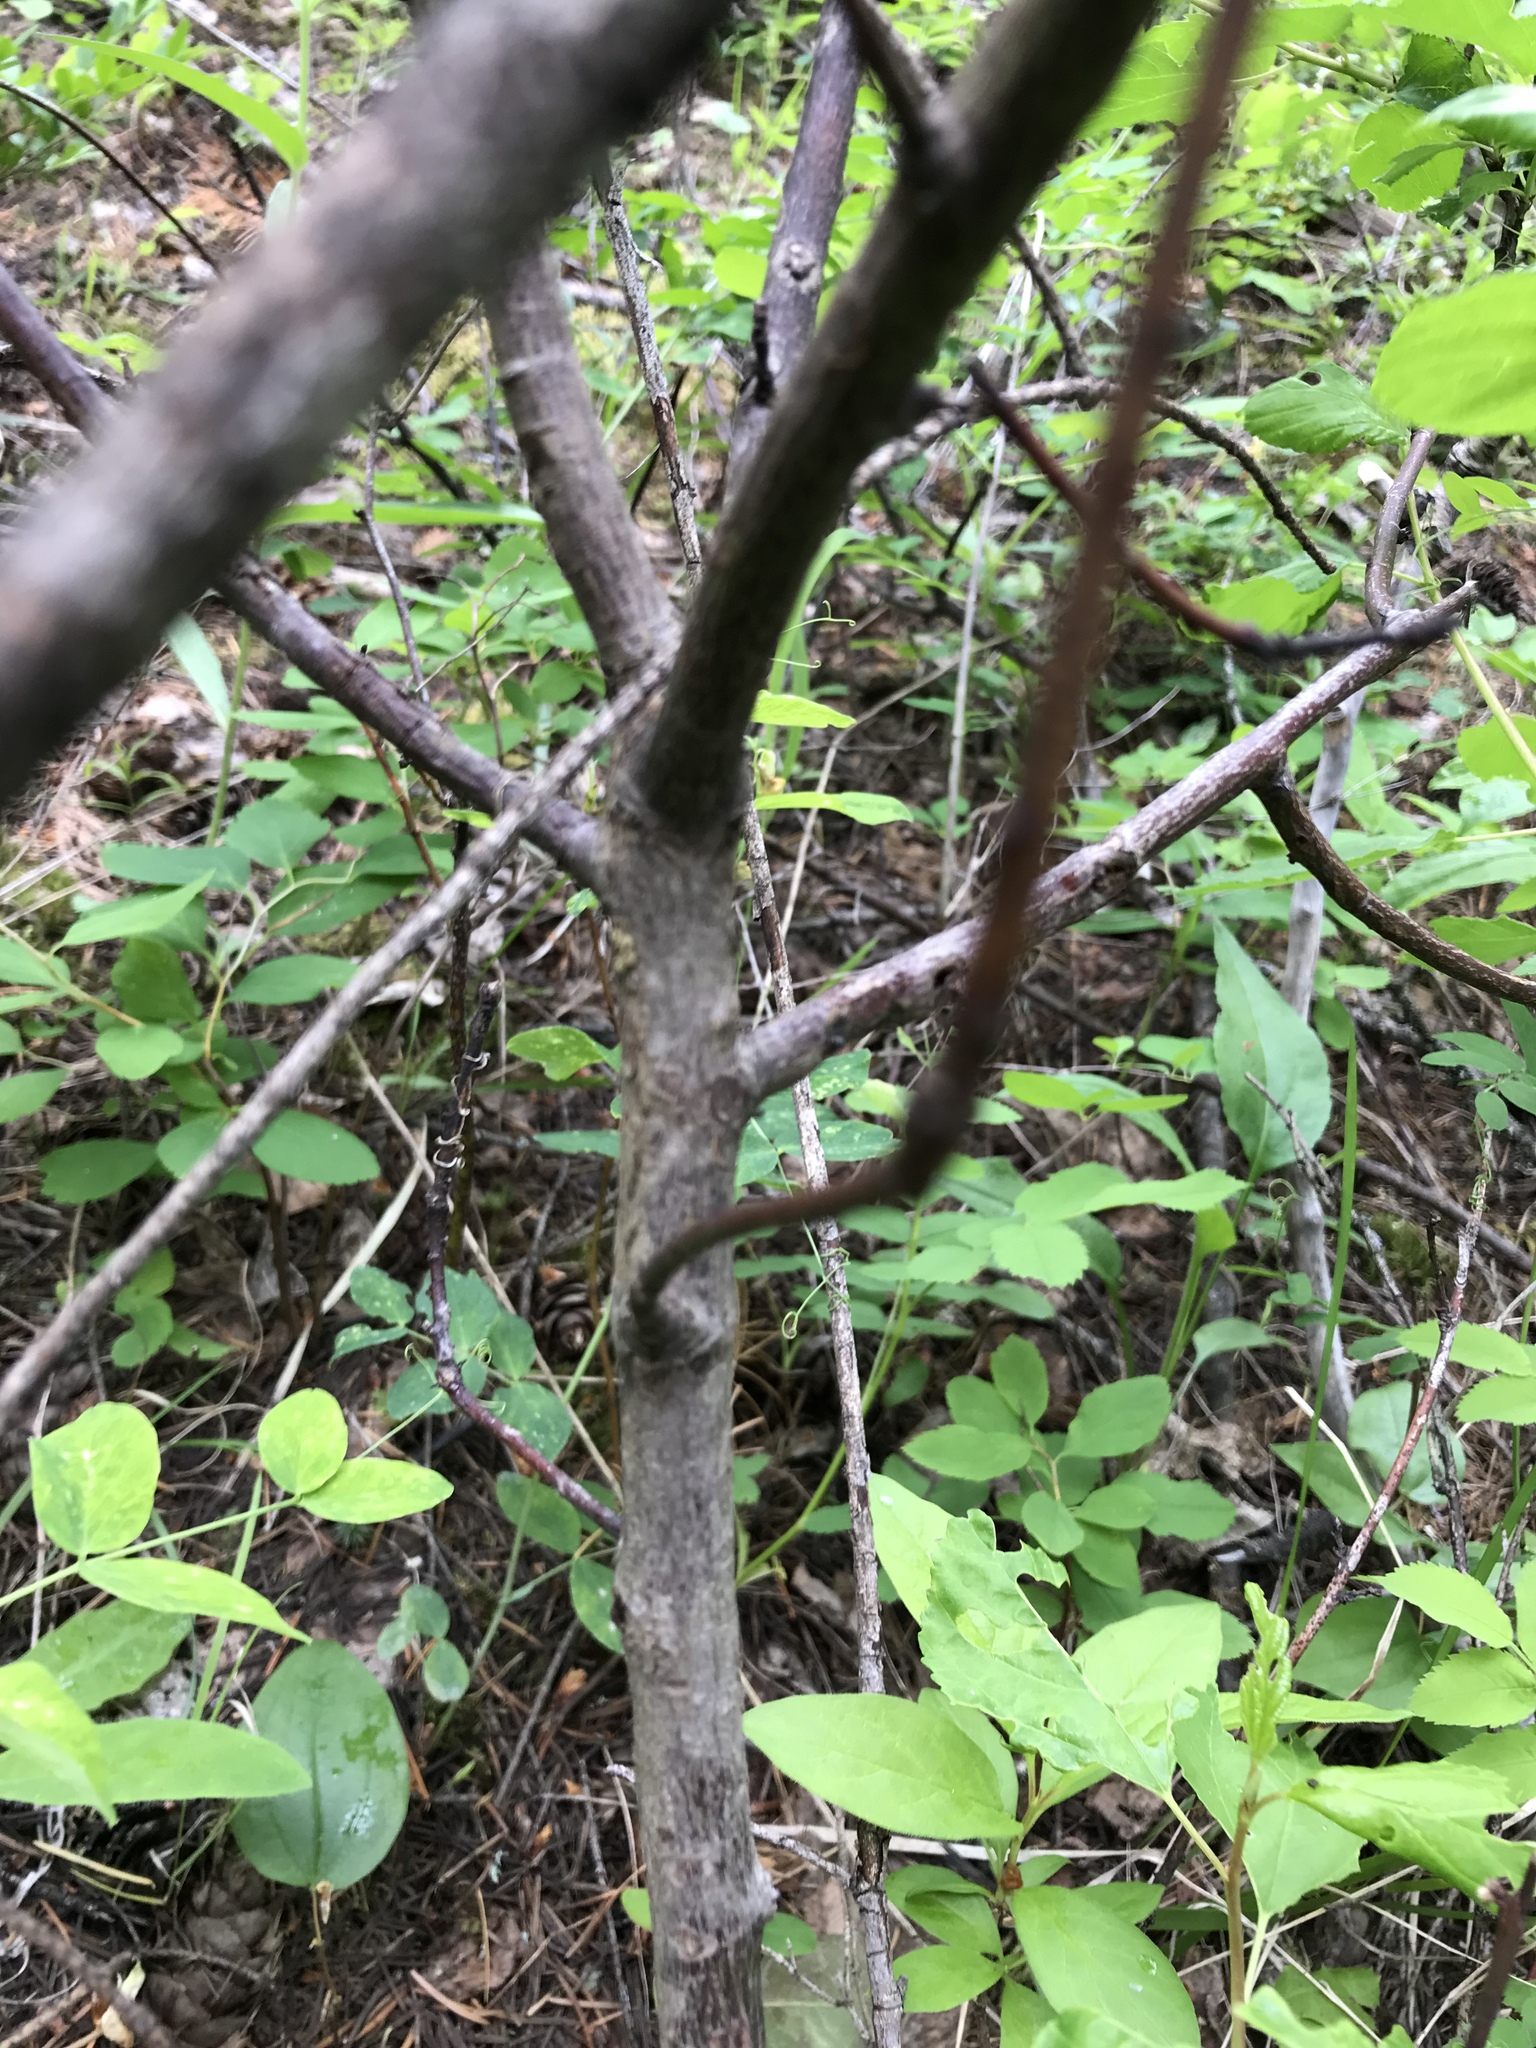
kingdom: Plantae
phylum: Tracheophyta
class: Magnoliopsida
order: Rosales
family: Rhamnaceae
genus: Ceanothus
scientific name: Ceanothus sanguineus
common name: Teatree
